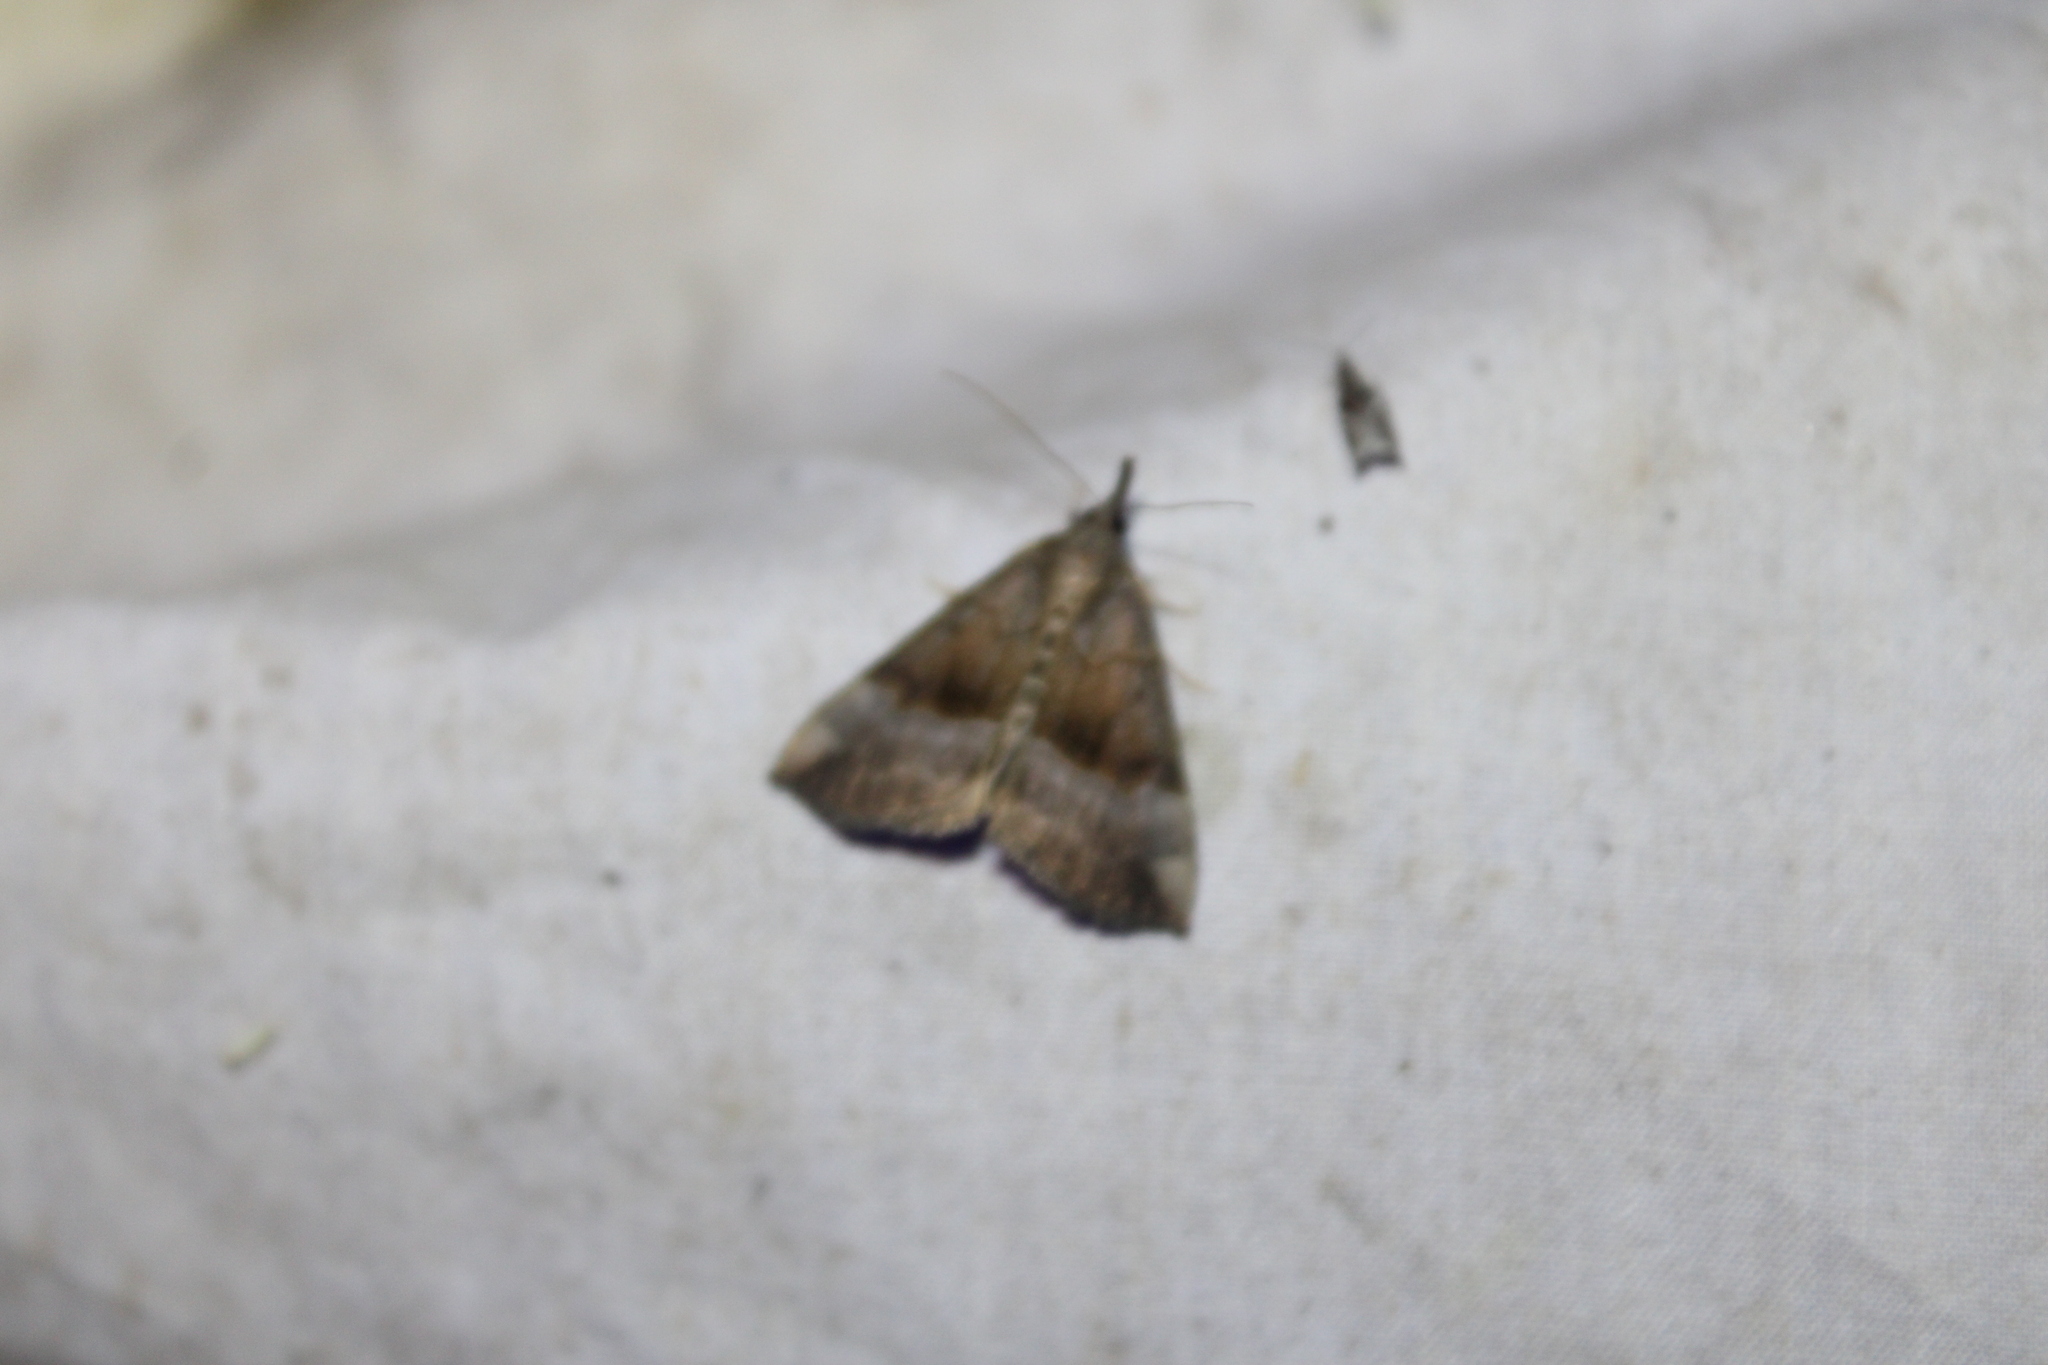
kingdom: Animalia
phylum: Arthropoda
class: Insecta
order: Lepidoptera
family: Erebidae
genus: Hypena
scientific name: Hypena madefactalis
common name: Gray-edged snout
